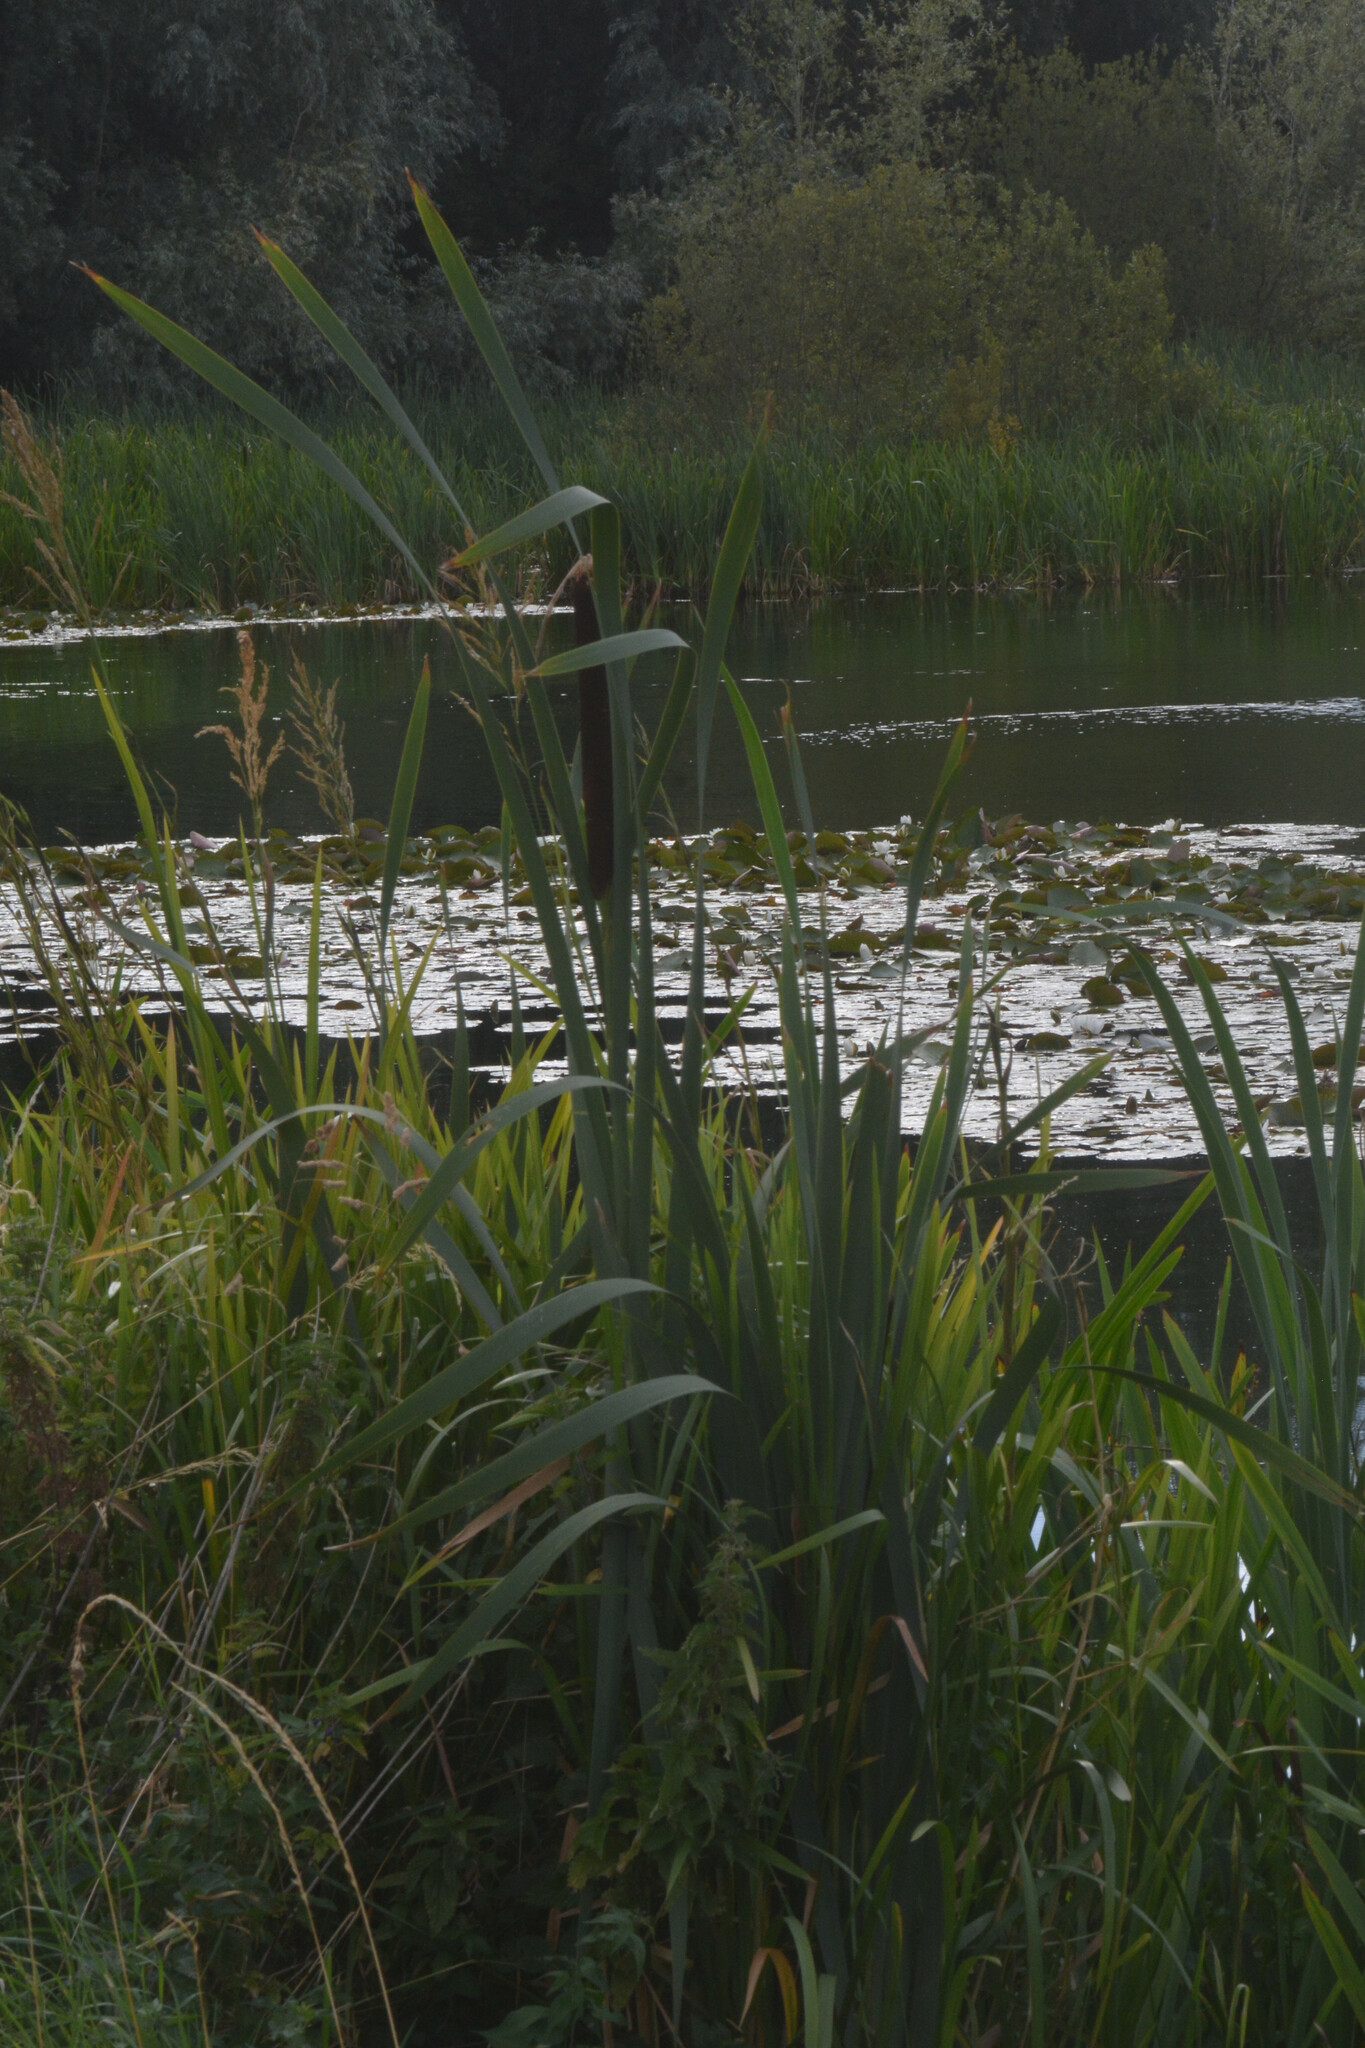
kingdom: Plantae
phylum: Tracheophyta
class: Liliopsida
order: Poales
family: Typhaceae
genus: Typha
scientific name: Typha latifolia
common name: Broadleaf cattail
